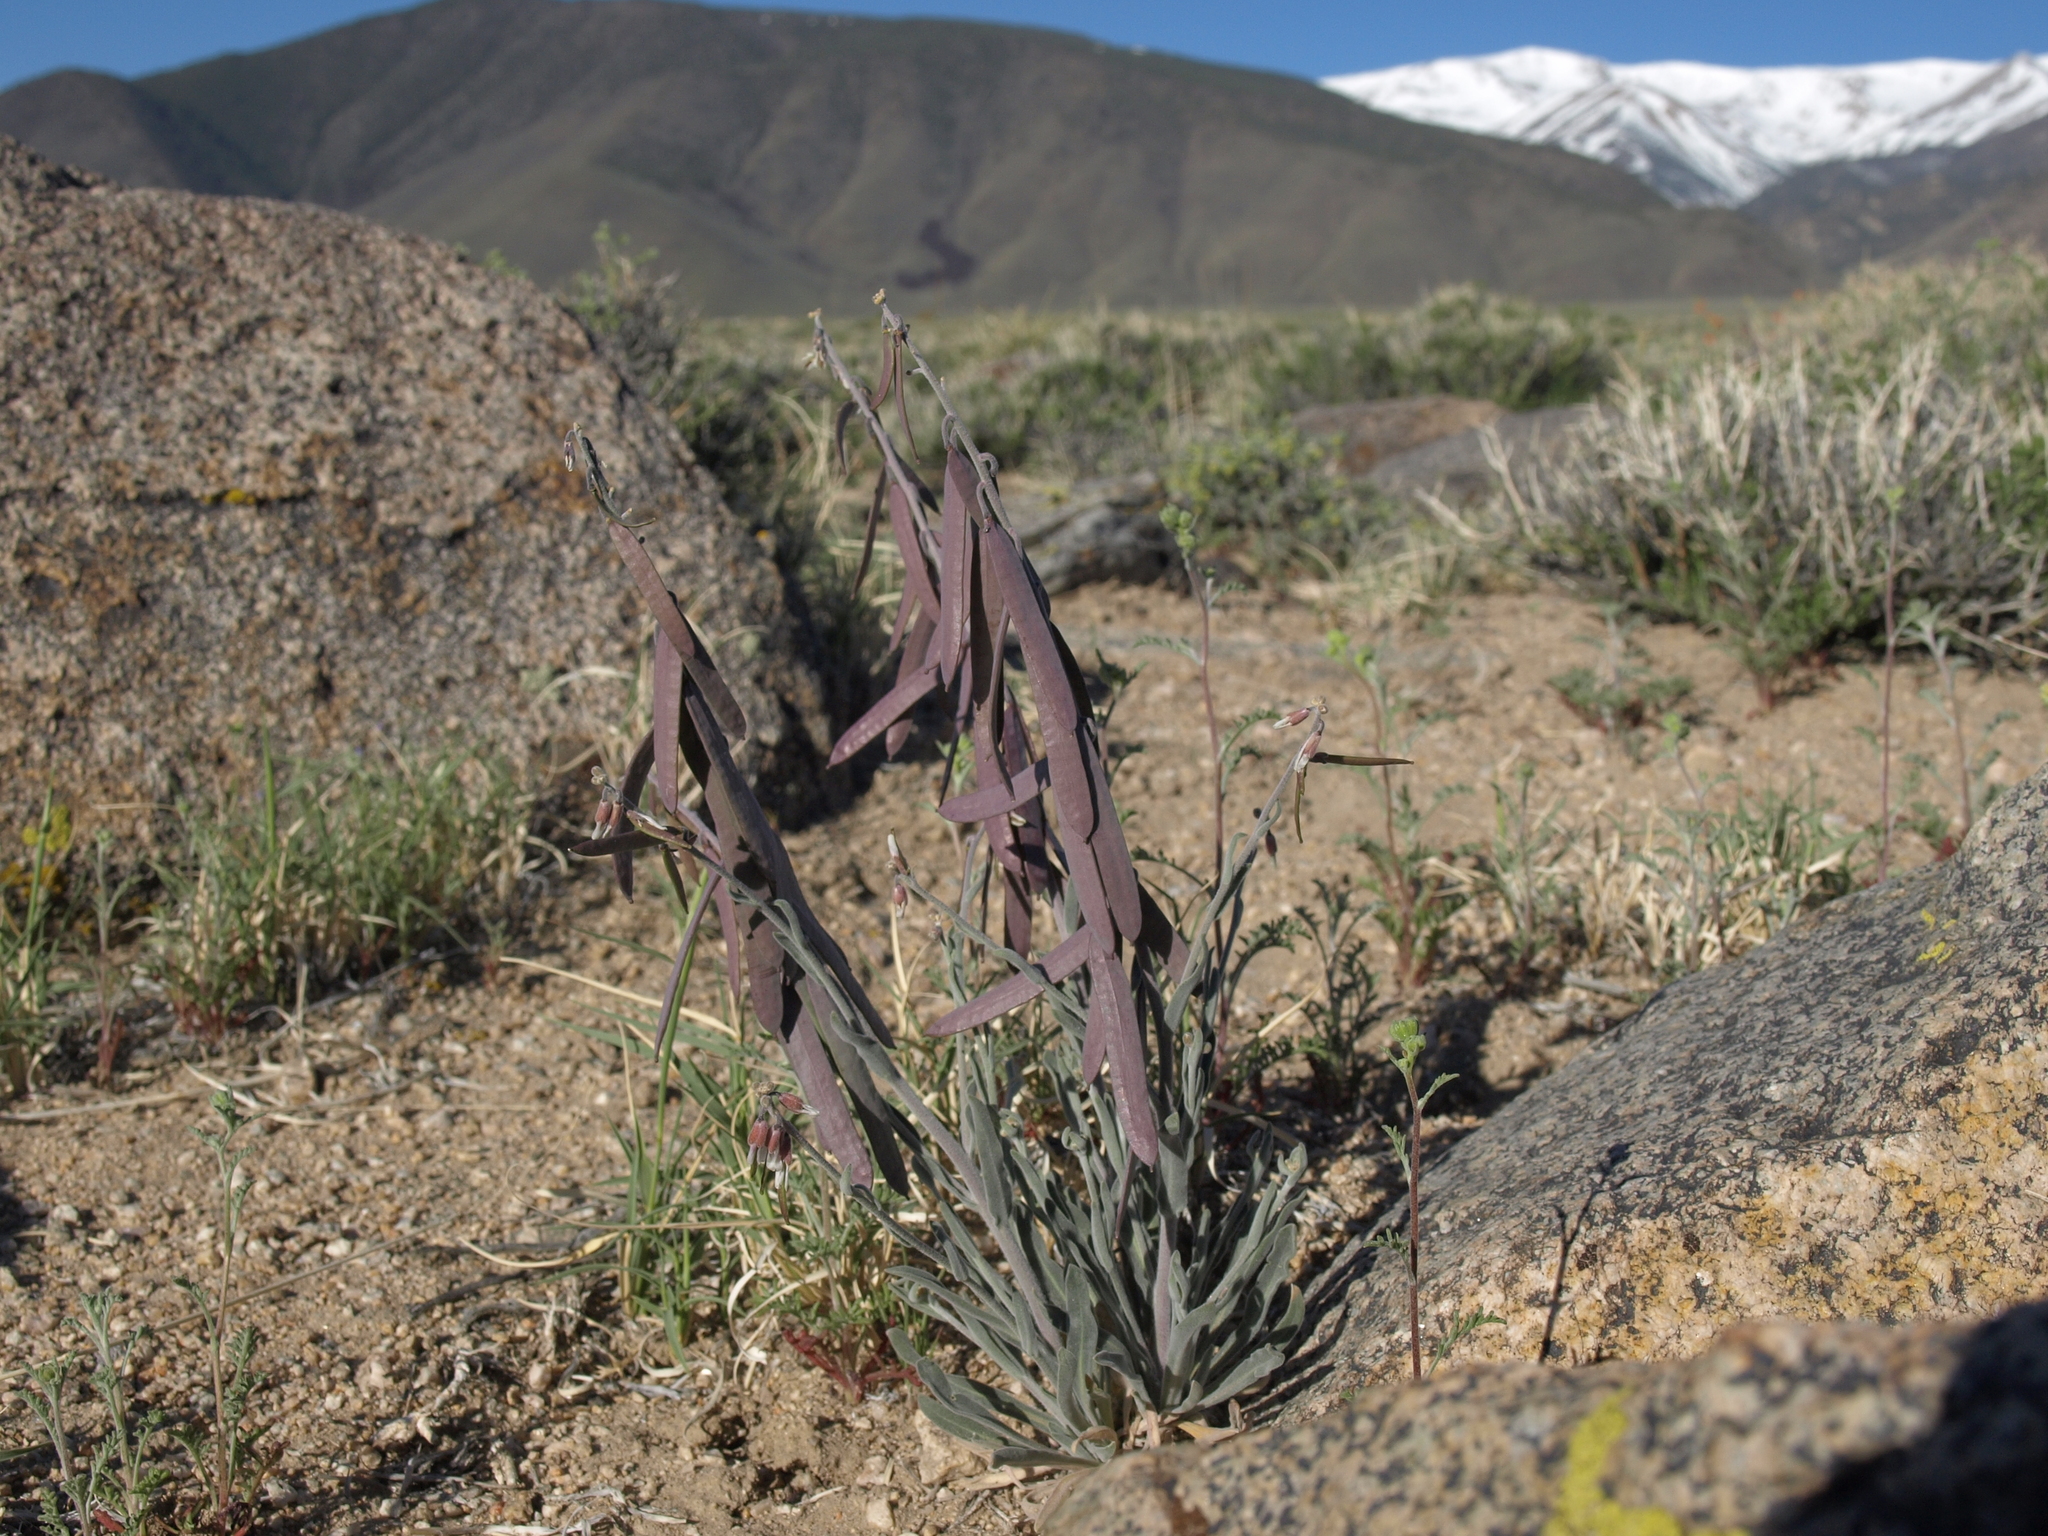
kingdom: Plantae
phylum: Tracheophyta
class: Magnoliopsida
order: Brassicales
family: Brassicaceae
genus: Boechera
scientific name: Boechera glaucovalvula
